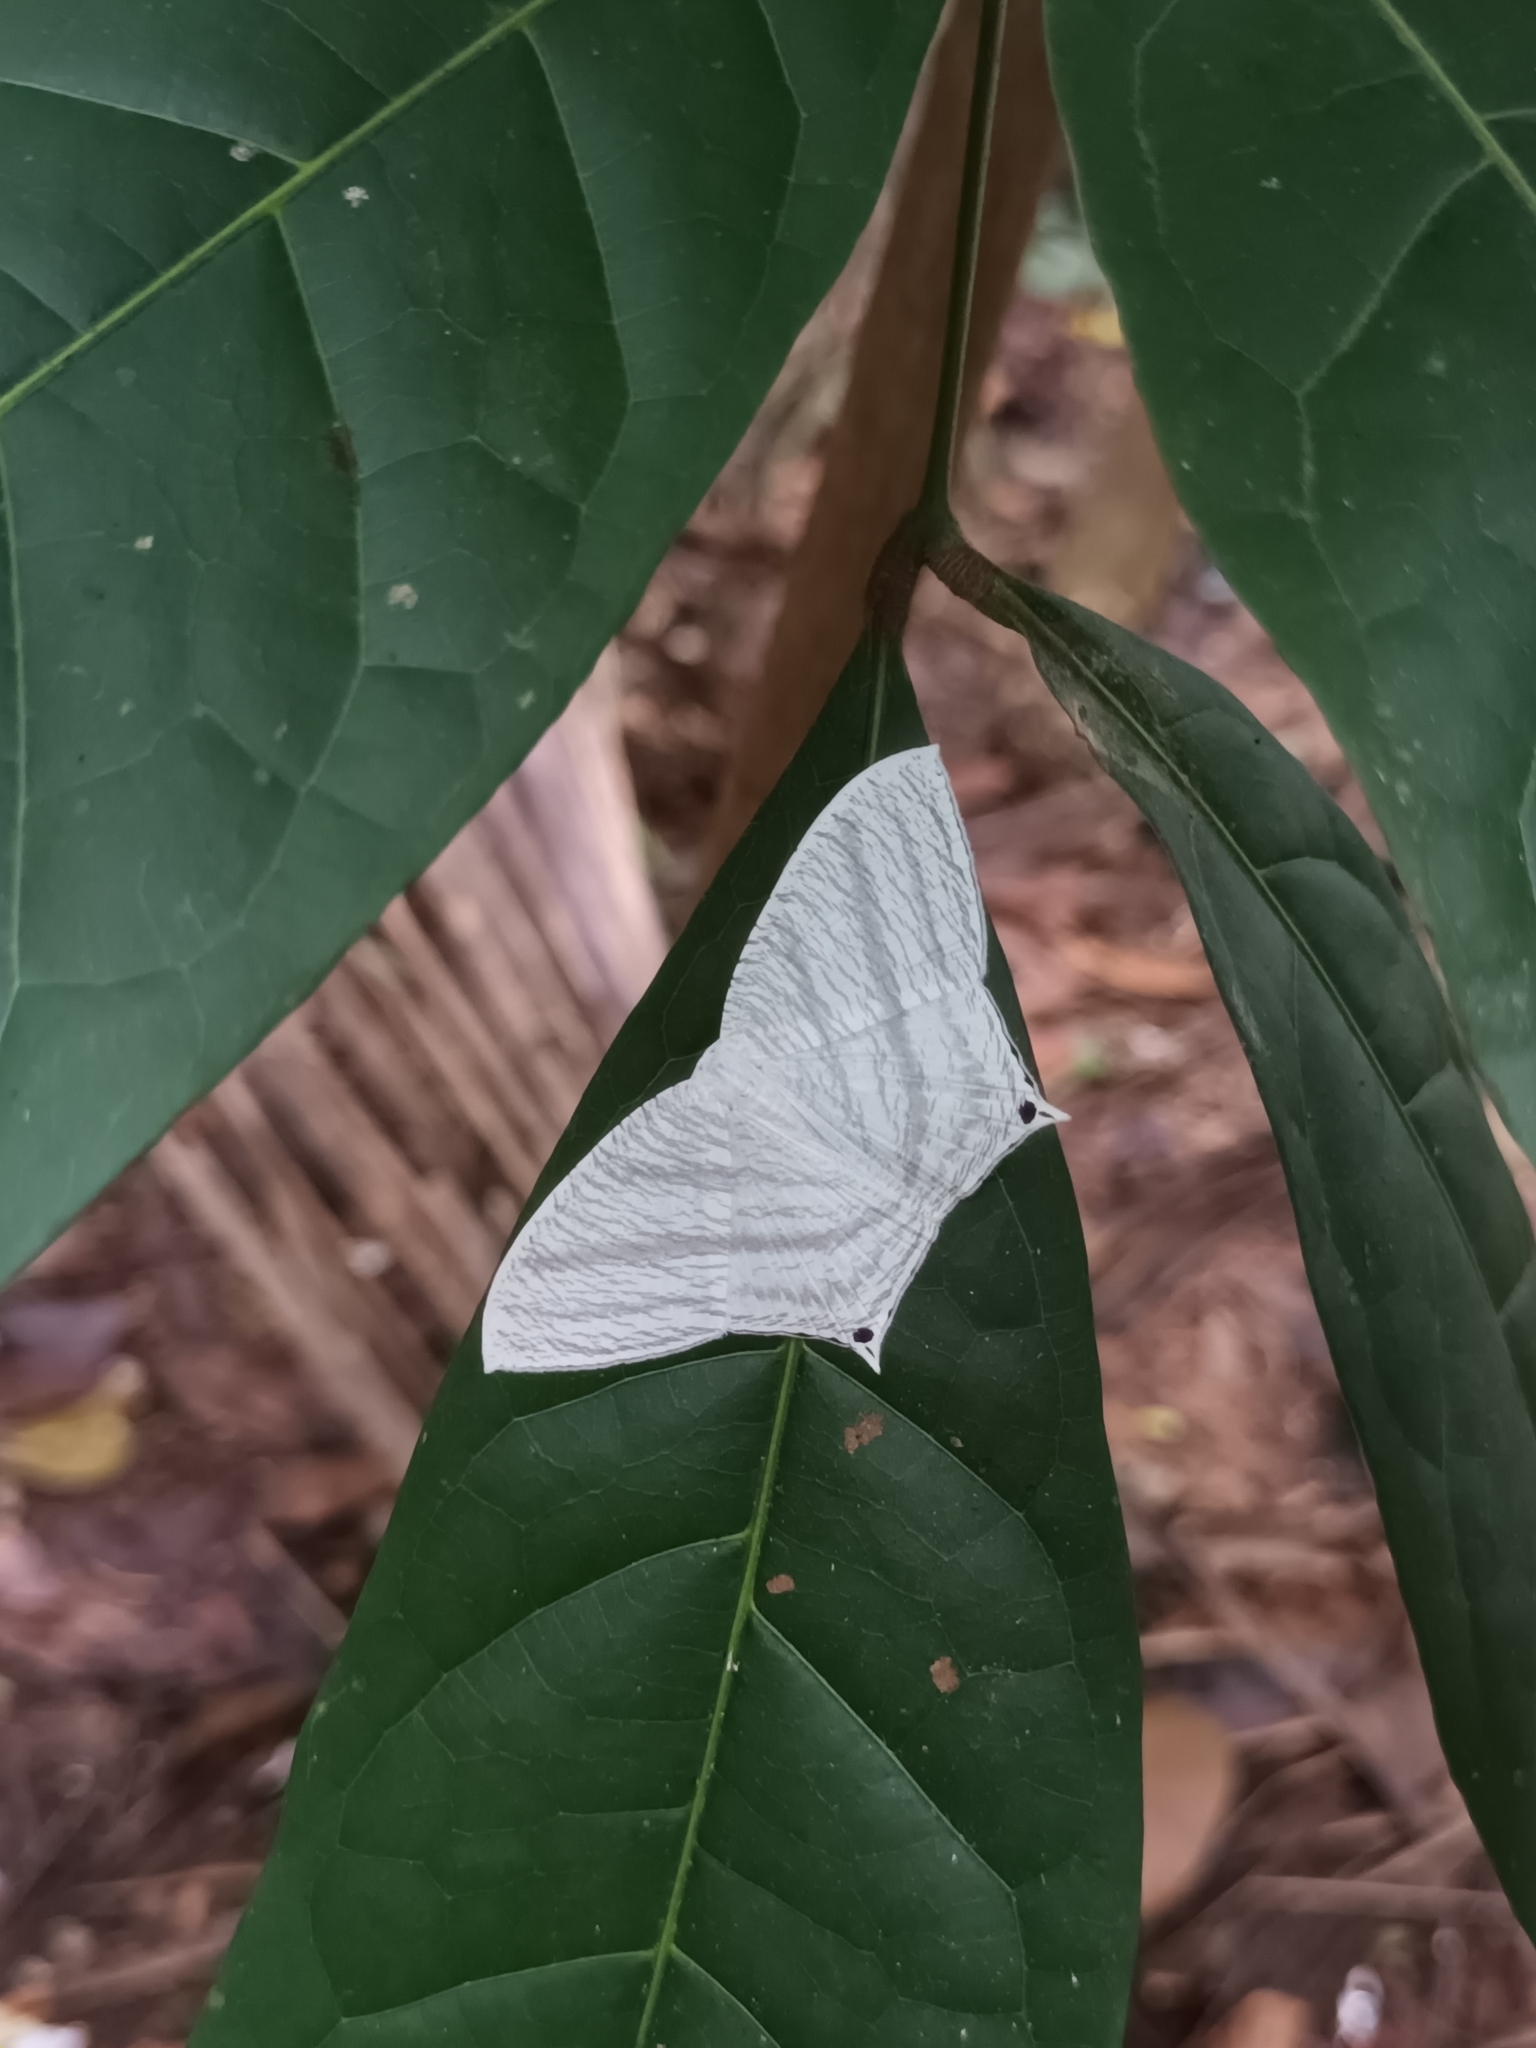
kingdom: Animalia
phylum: Arthropoda
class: Insecta
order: Lepidoptera
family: Uraniidae
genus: Micronia
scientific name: Micronia aculeata
